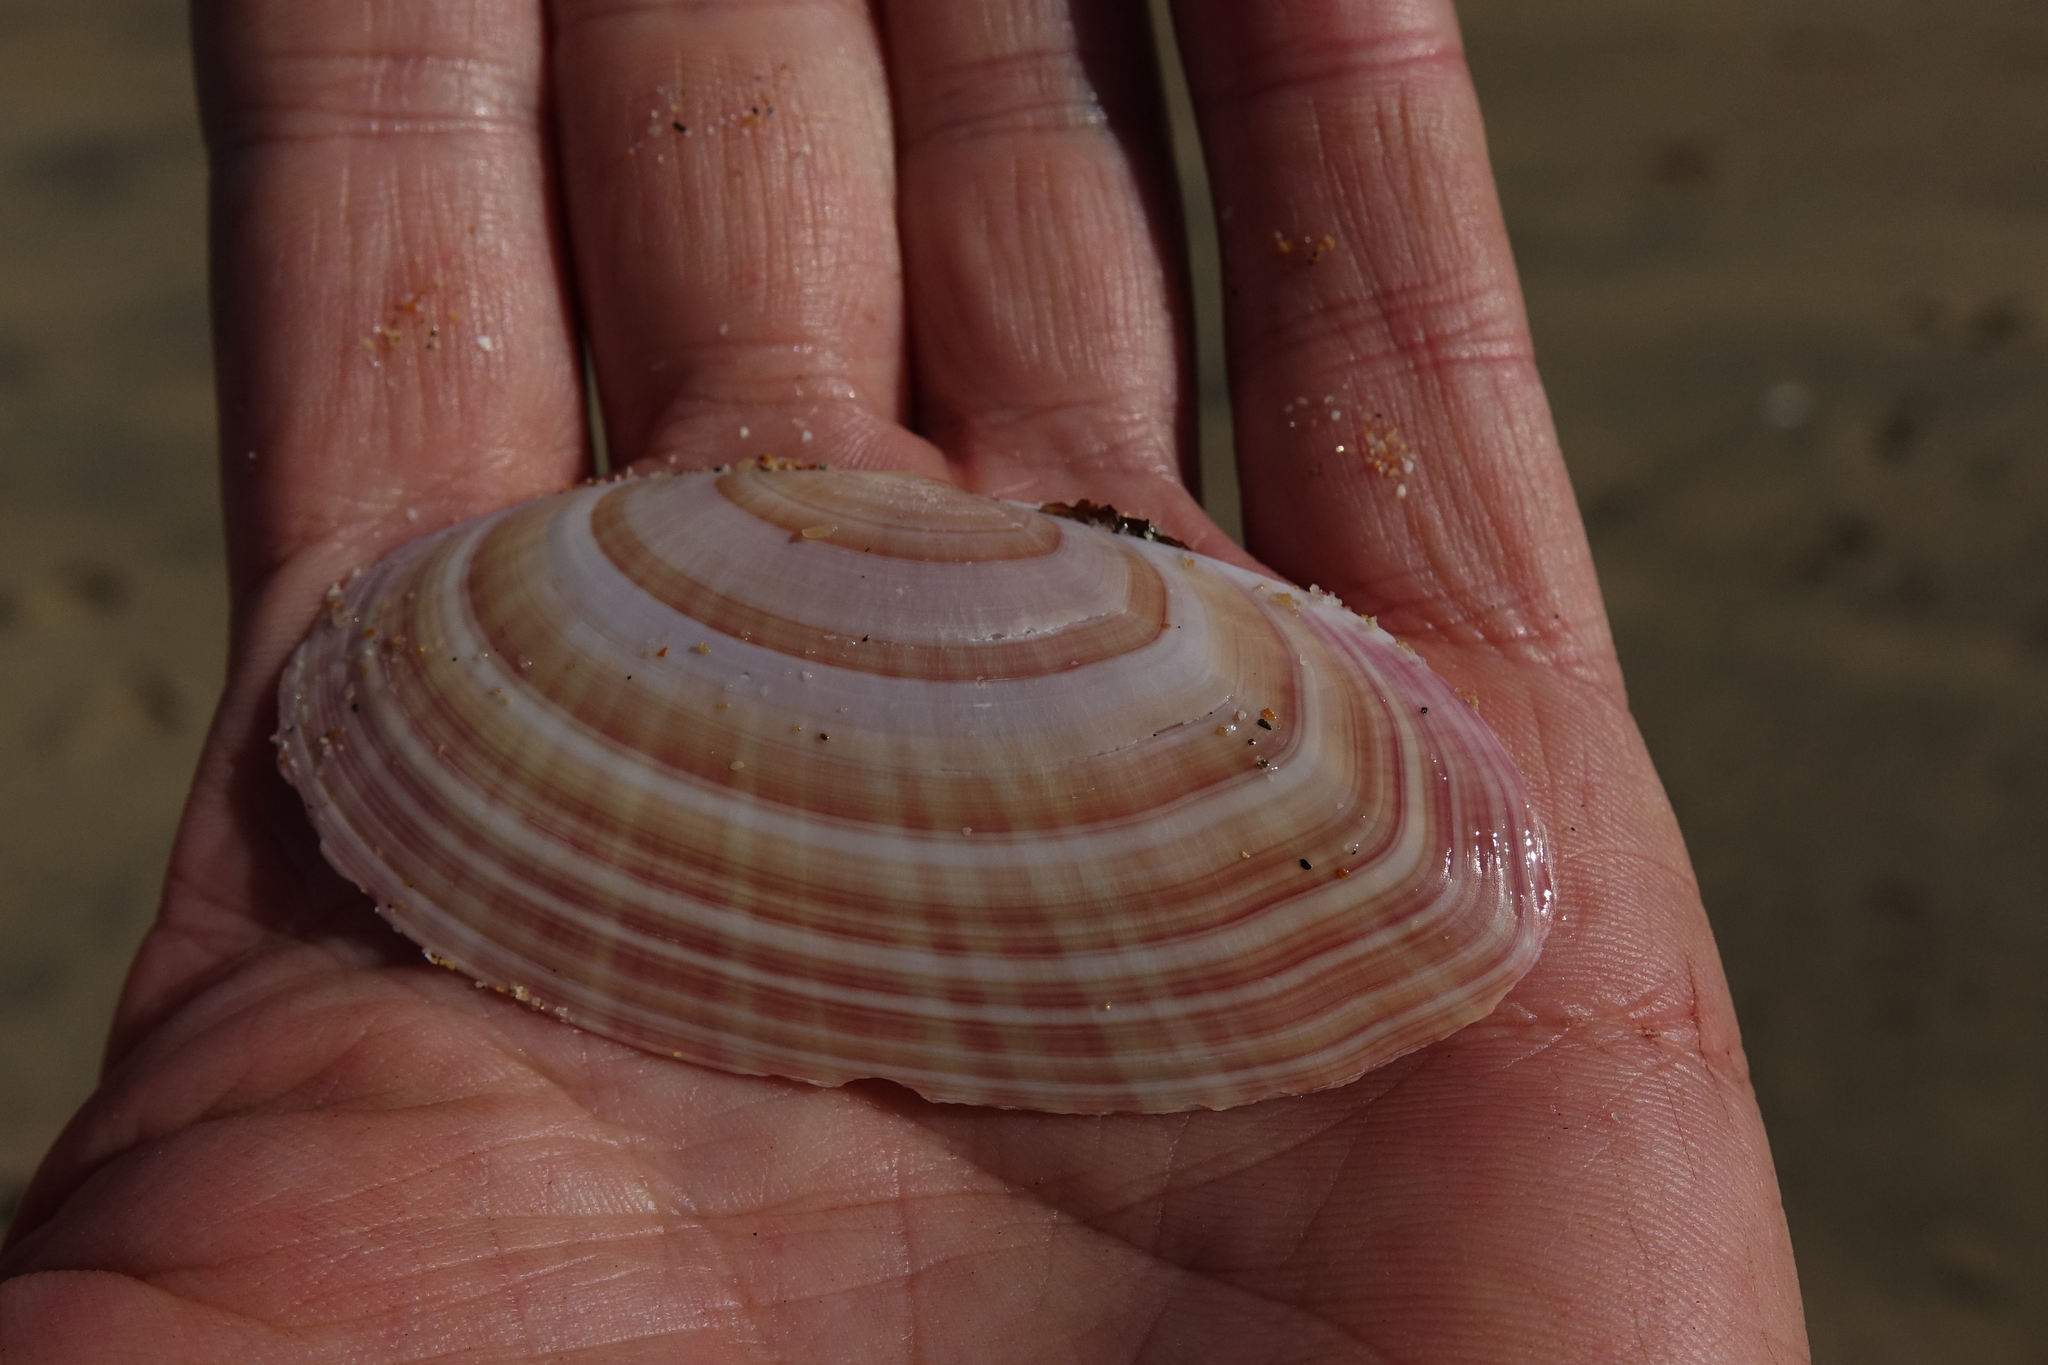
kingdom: Animalia
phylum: Mollusca
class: Bivalvia
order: Cardiida
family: Psammobiidae
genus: Gari
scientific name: Gari convexa
